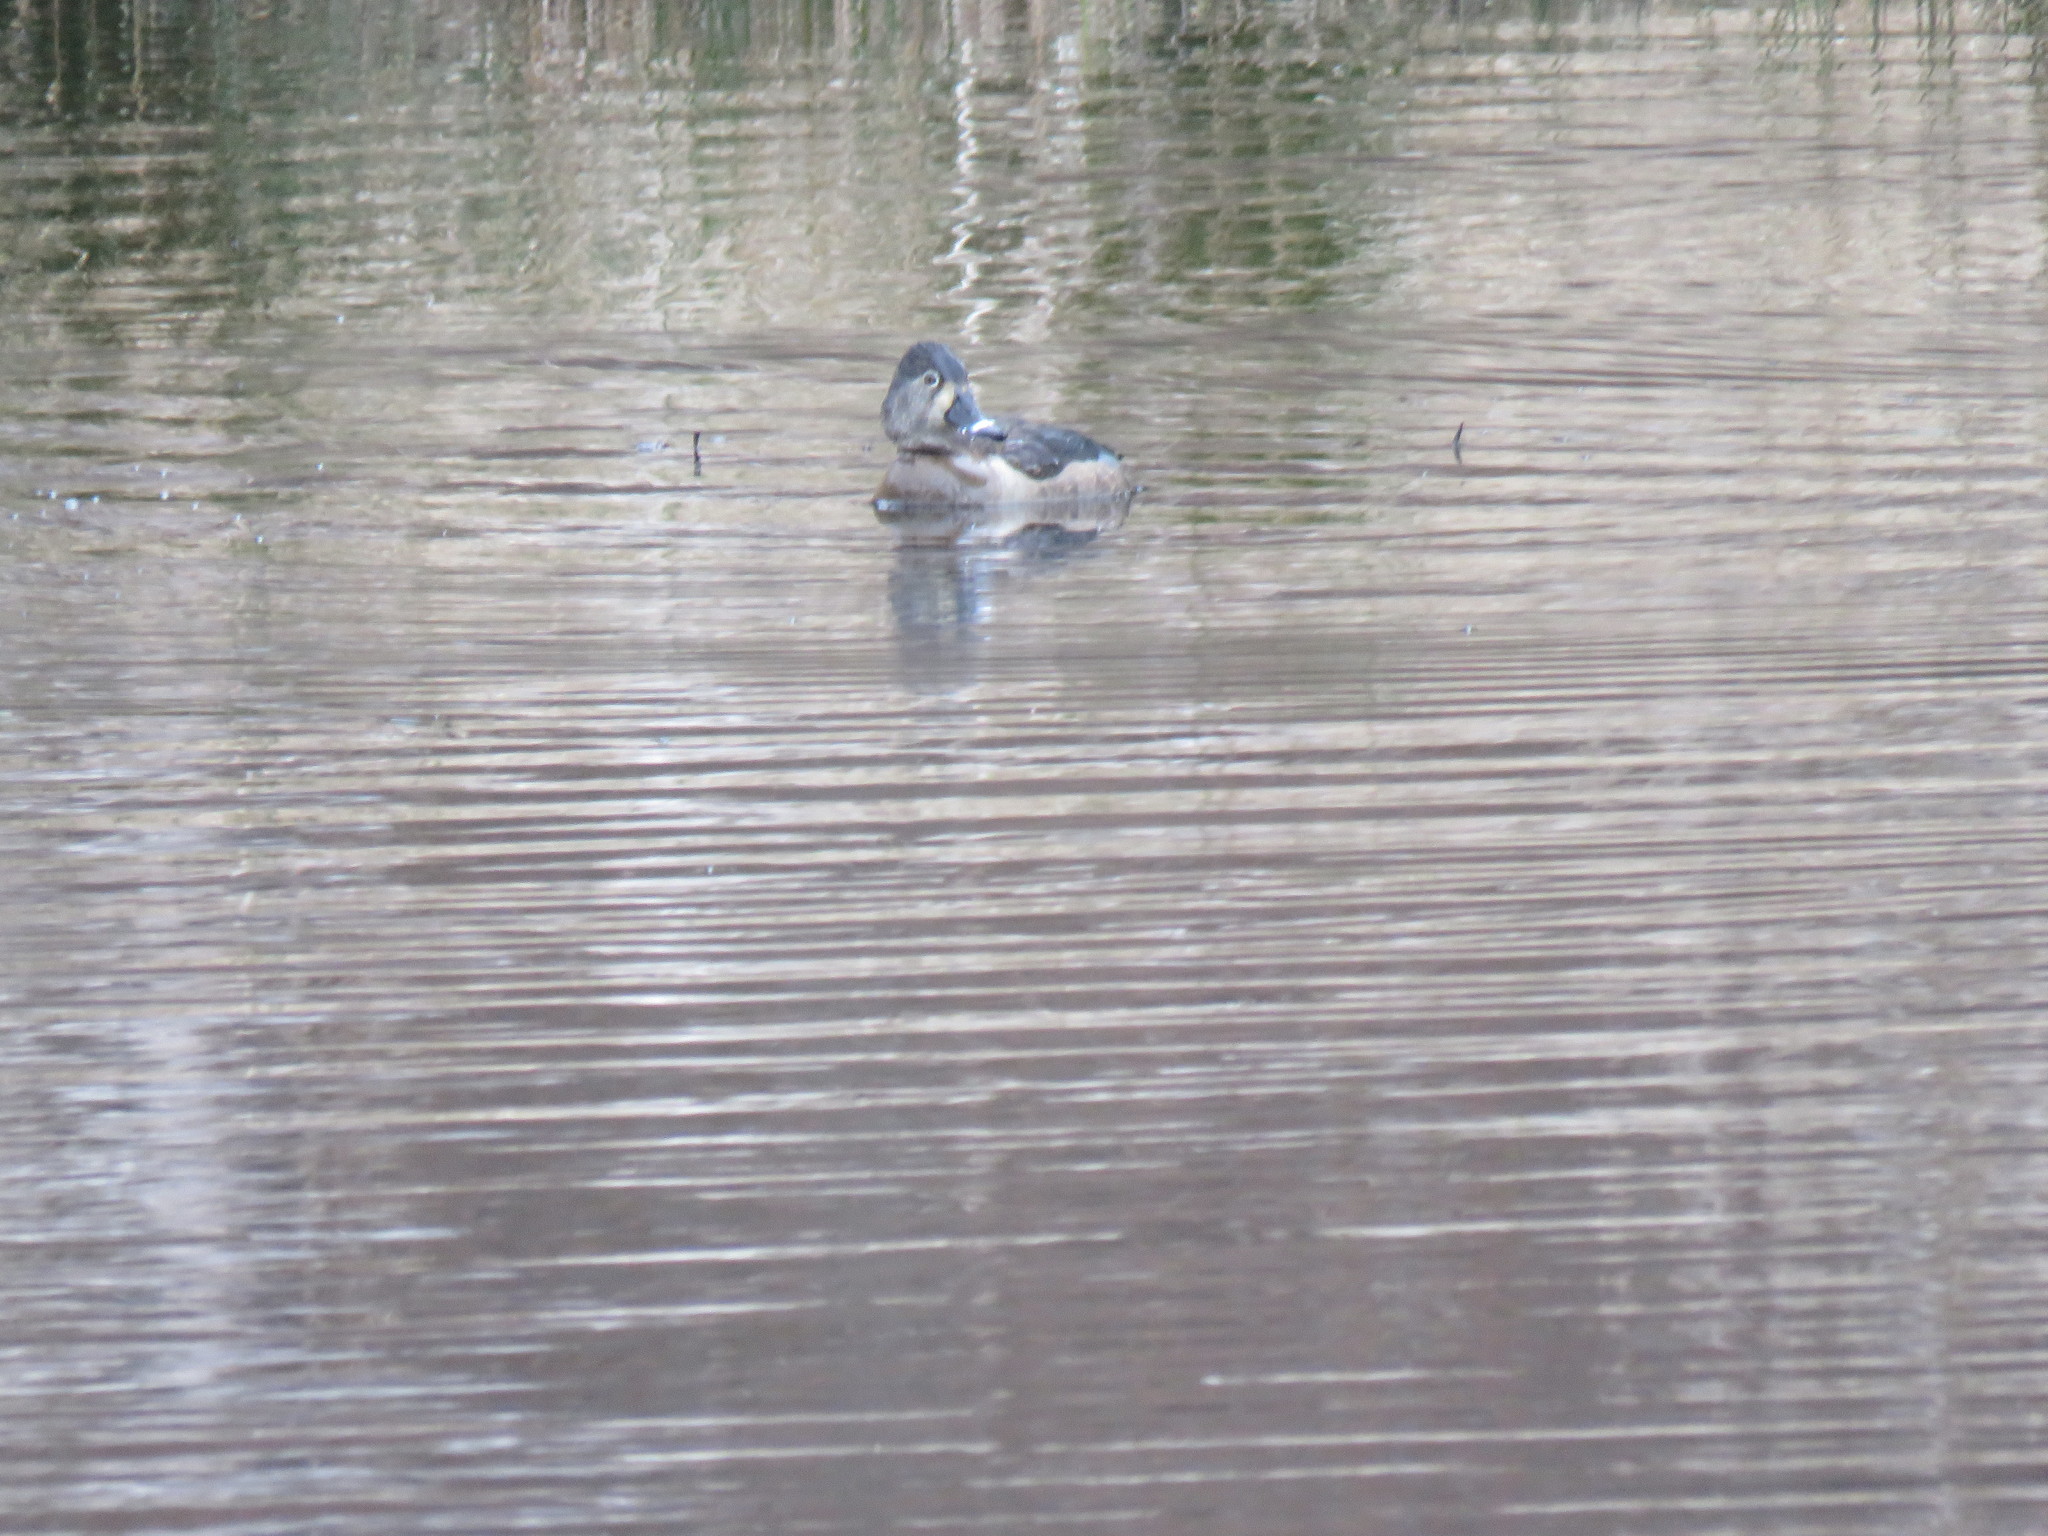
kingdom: Animalia
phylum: Chordata
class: Aves
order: Anseriformes
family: Anatidae
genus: Aythya
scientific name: Aythya collaris
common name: Ring-necked duck
